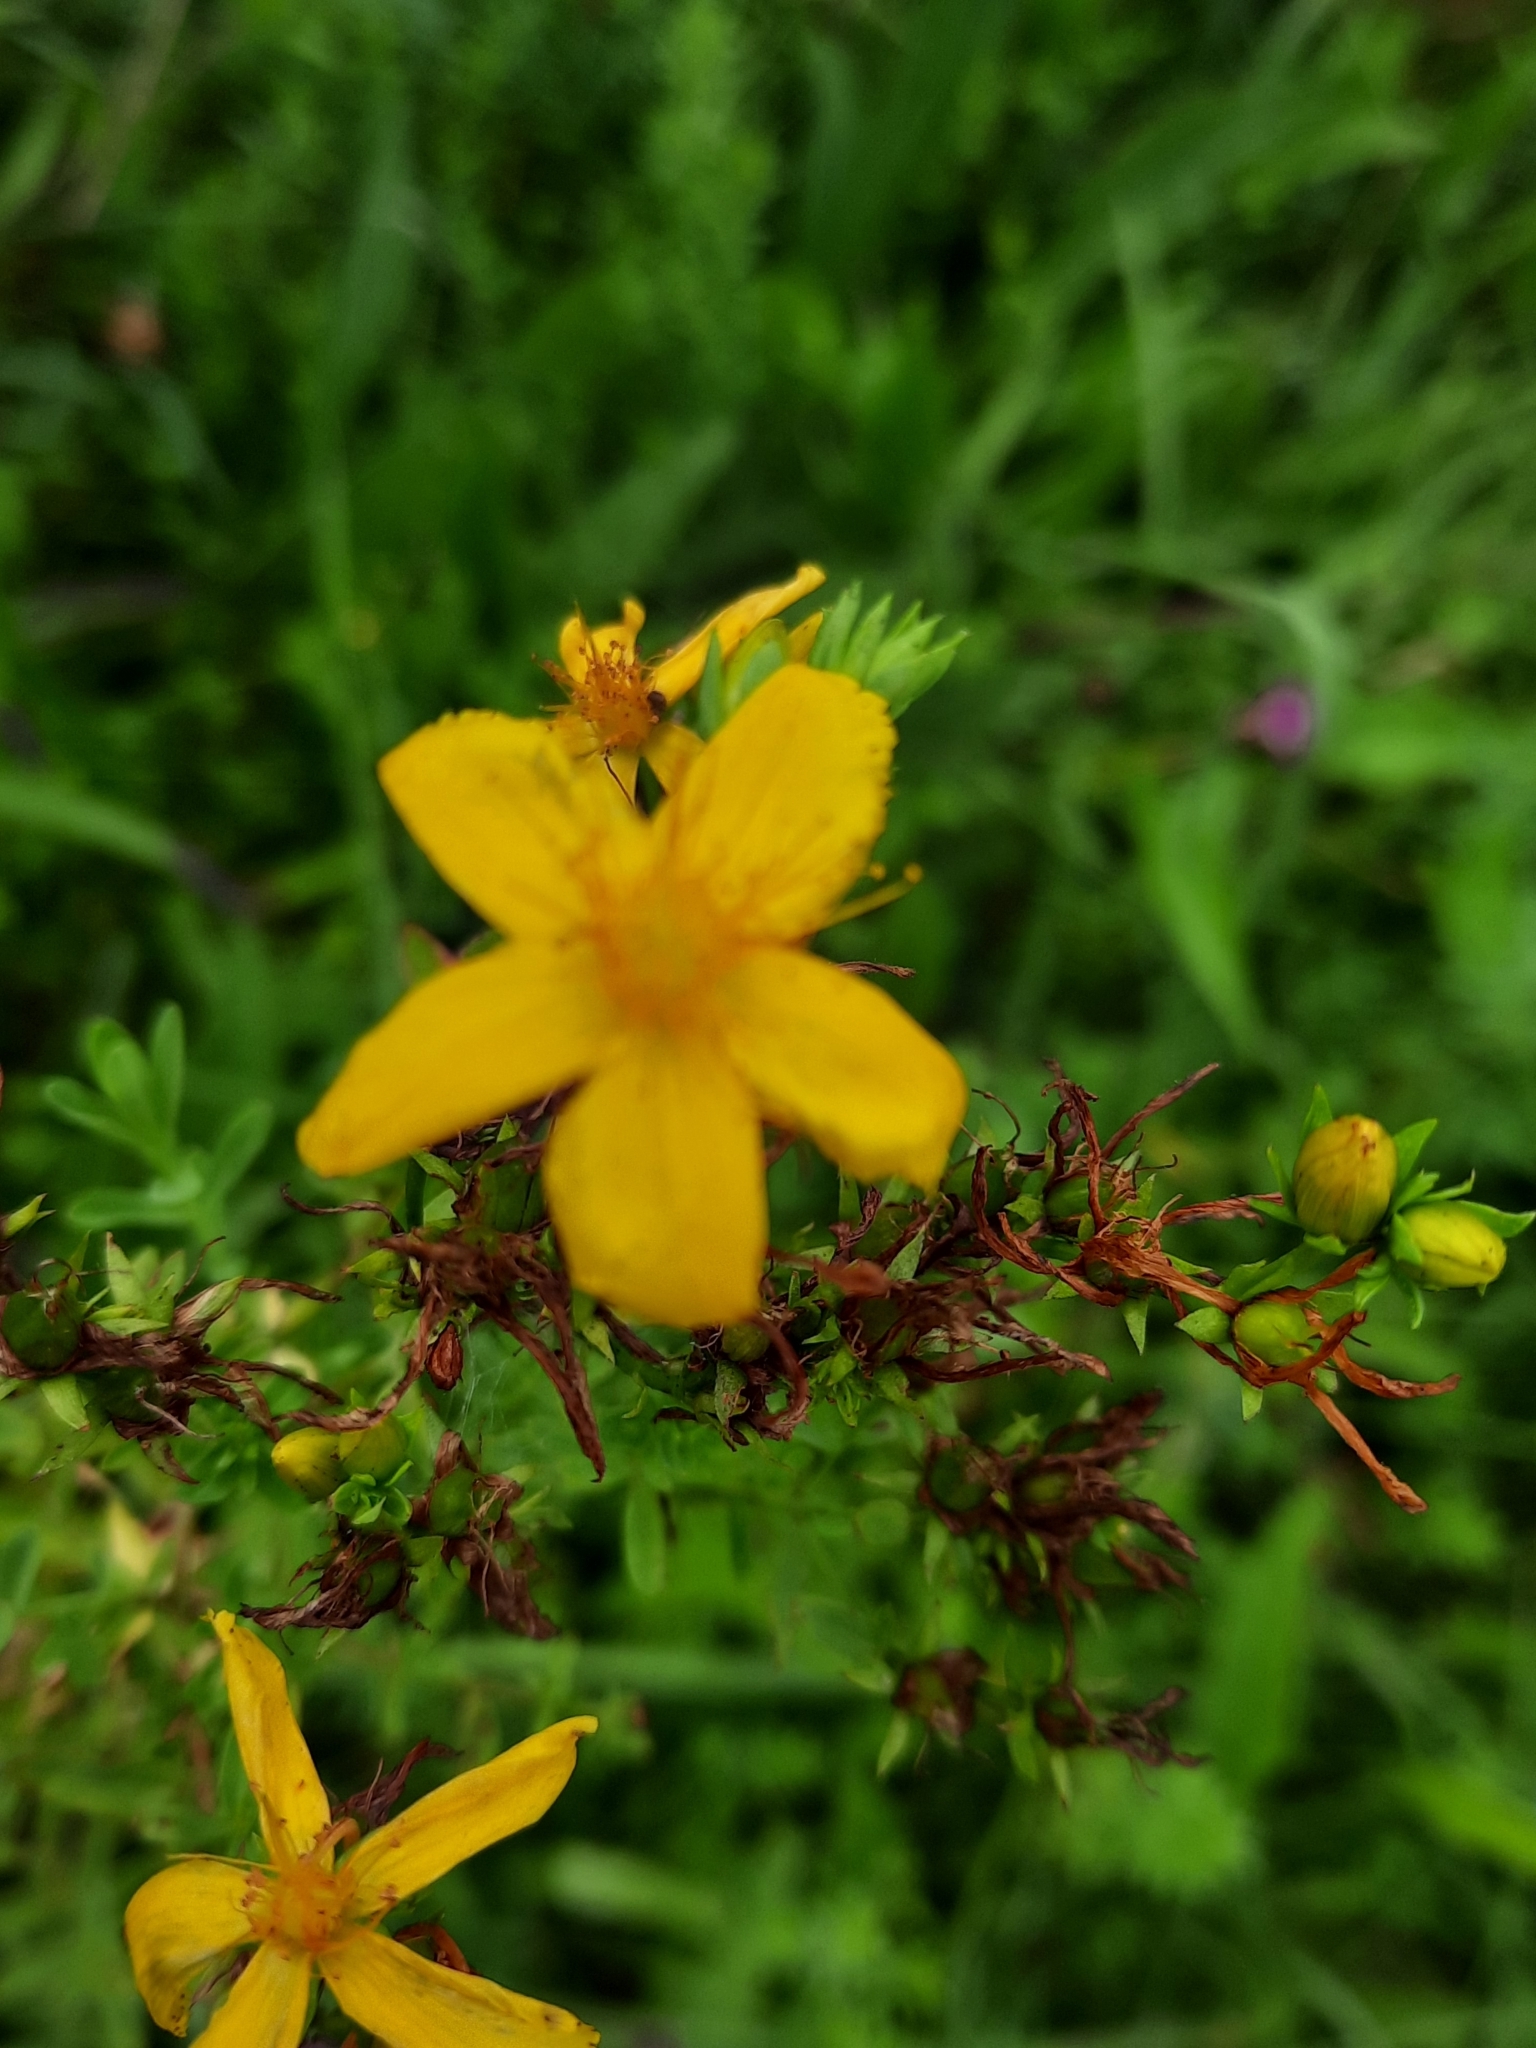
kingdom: Plantae
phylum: Tracheophyta
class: Magnoliopsida
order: Malpighiales
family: Hypericaceae
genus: Hypericum
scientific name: Hypericum perforatum
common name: Common st. johnswort
